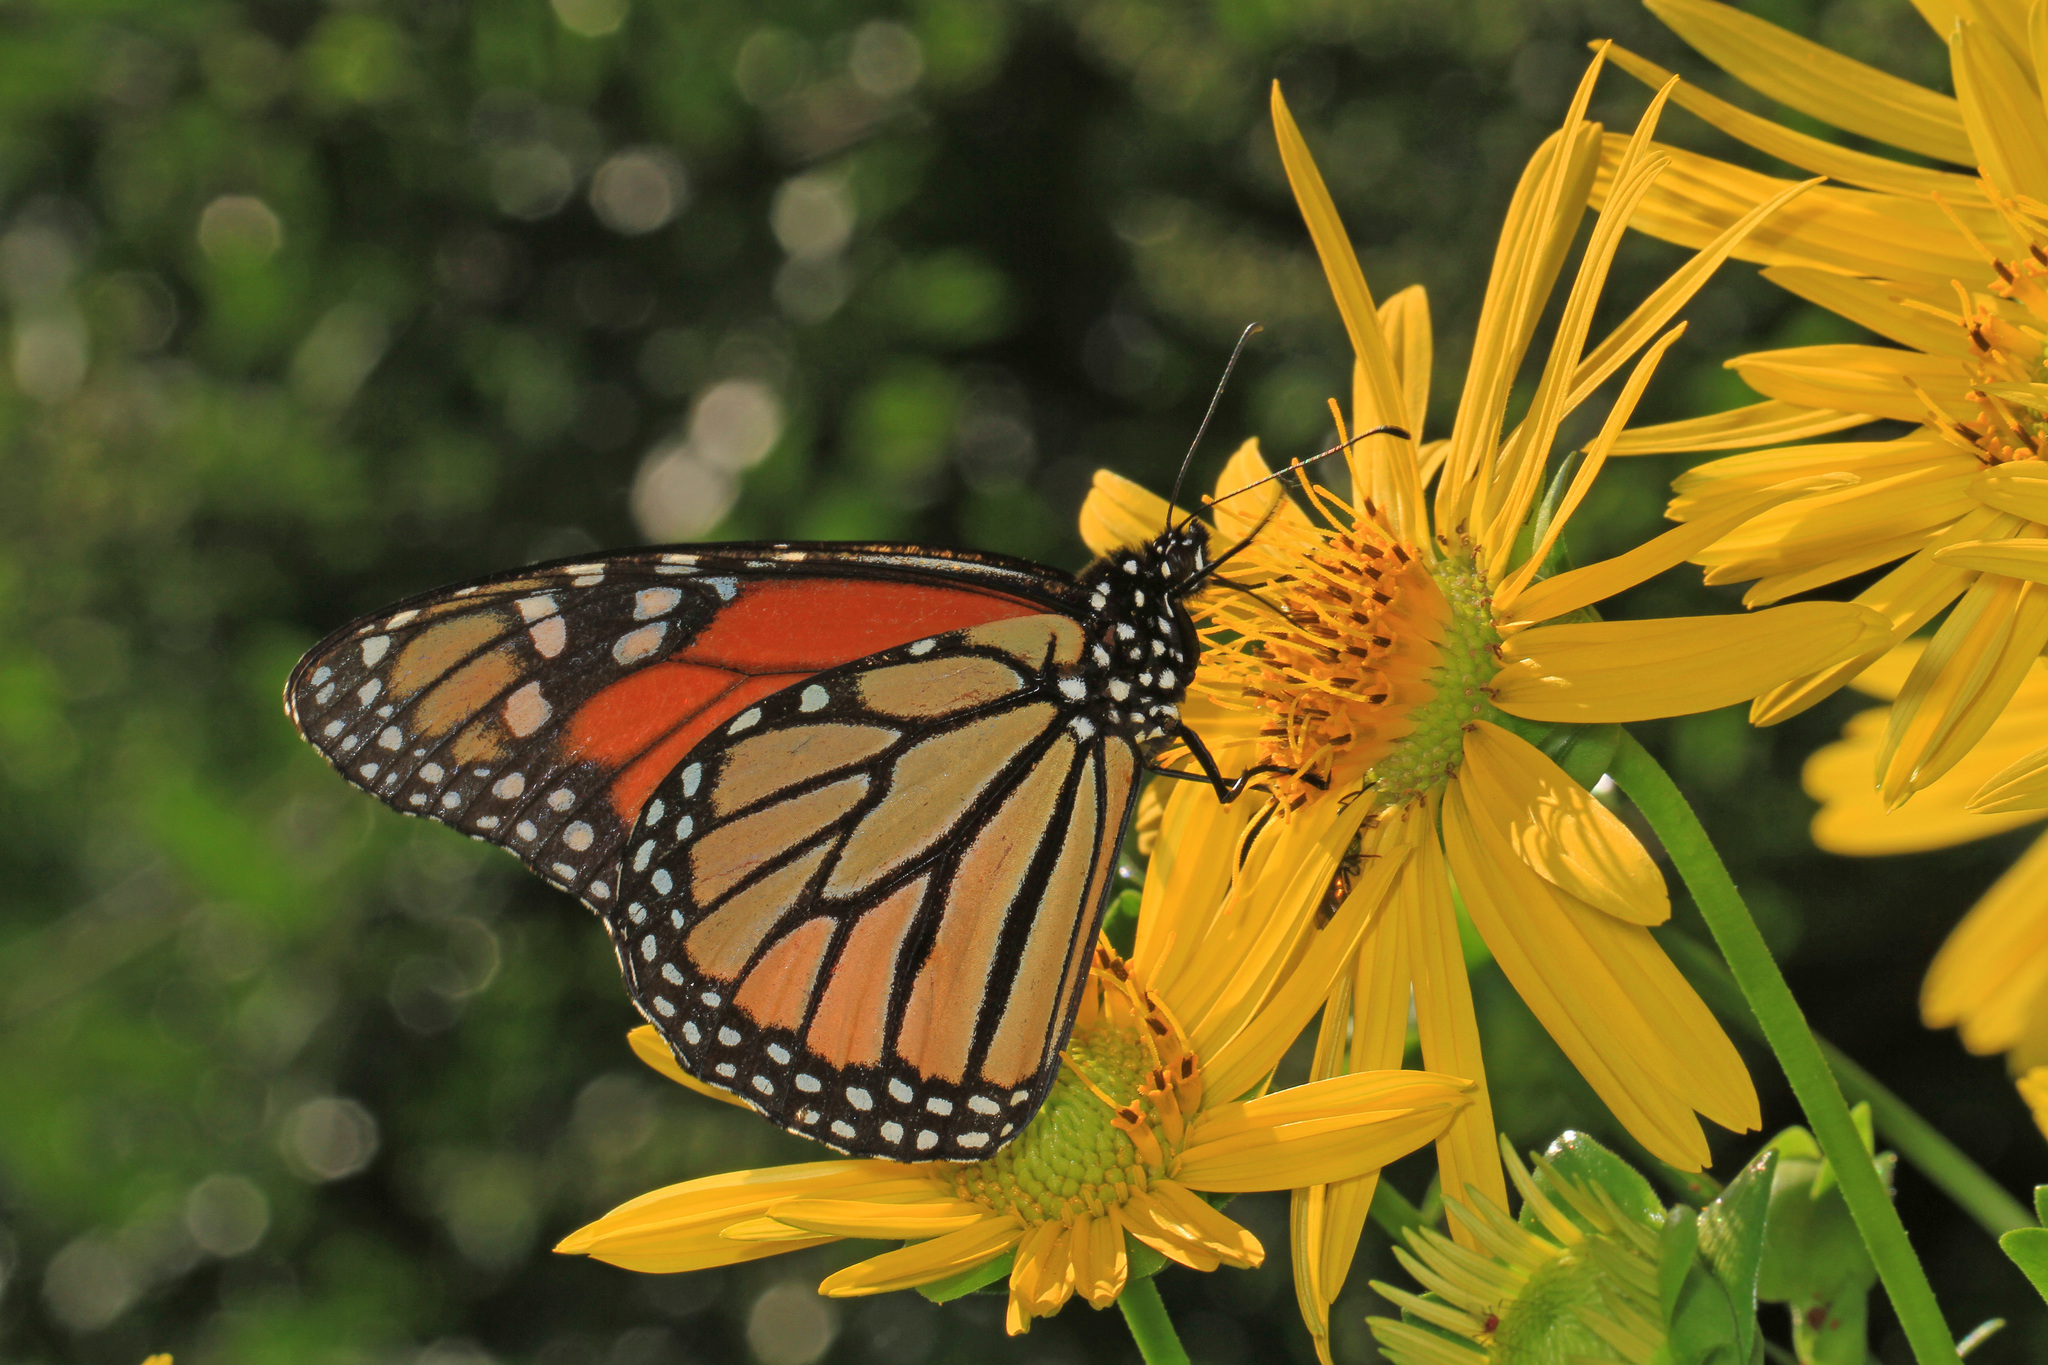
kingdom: Animalia
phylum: Arthropoda
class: Insecta
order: Lepidoptera
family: Nymphalidae
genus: Danaus
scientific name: Danaus plexippus
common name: Monarch
